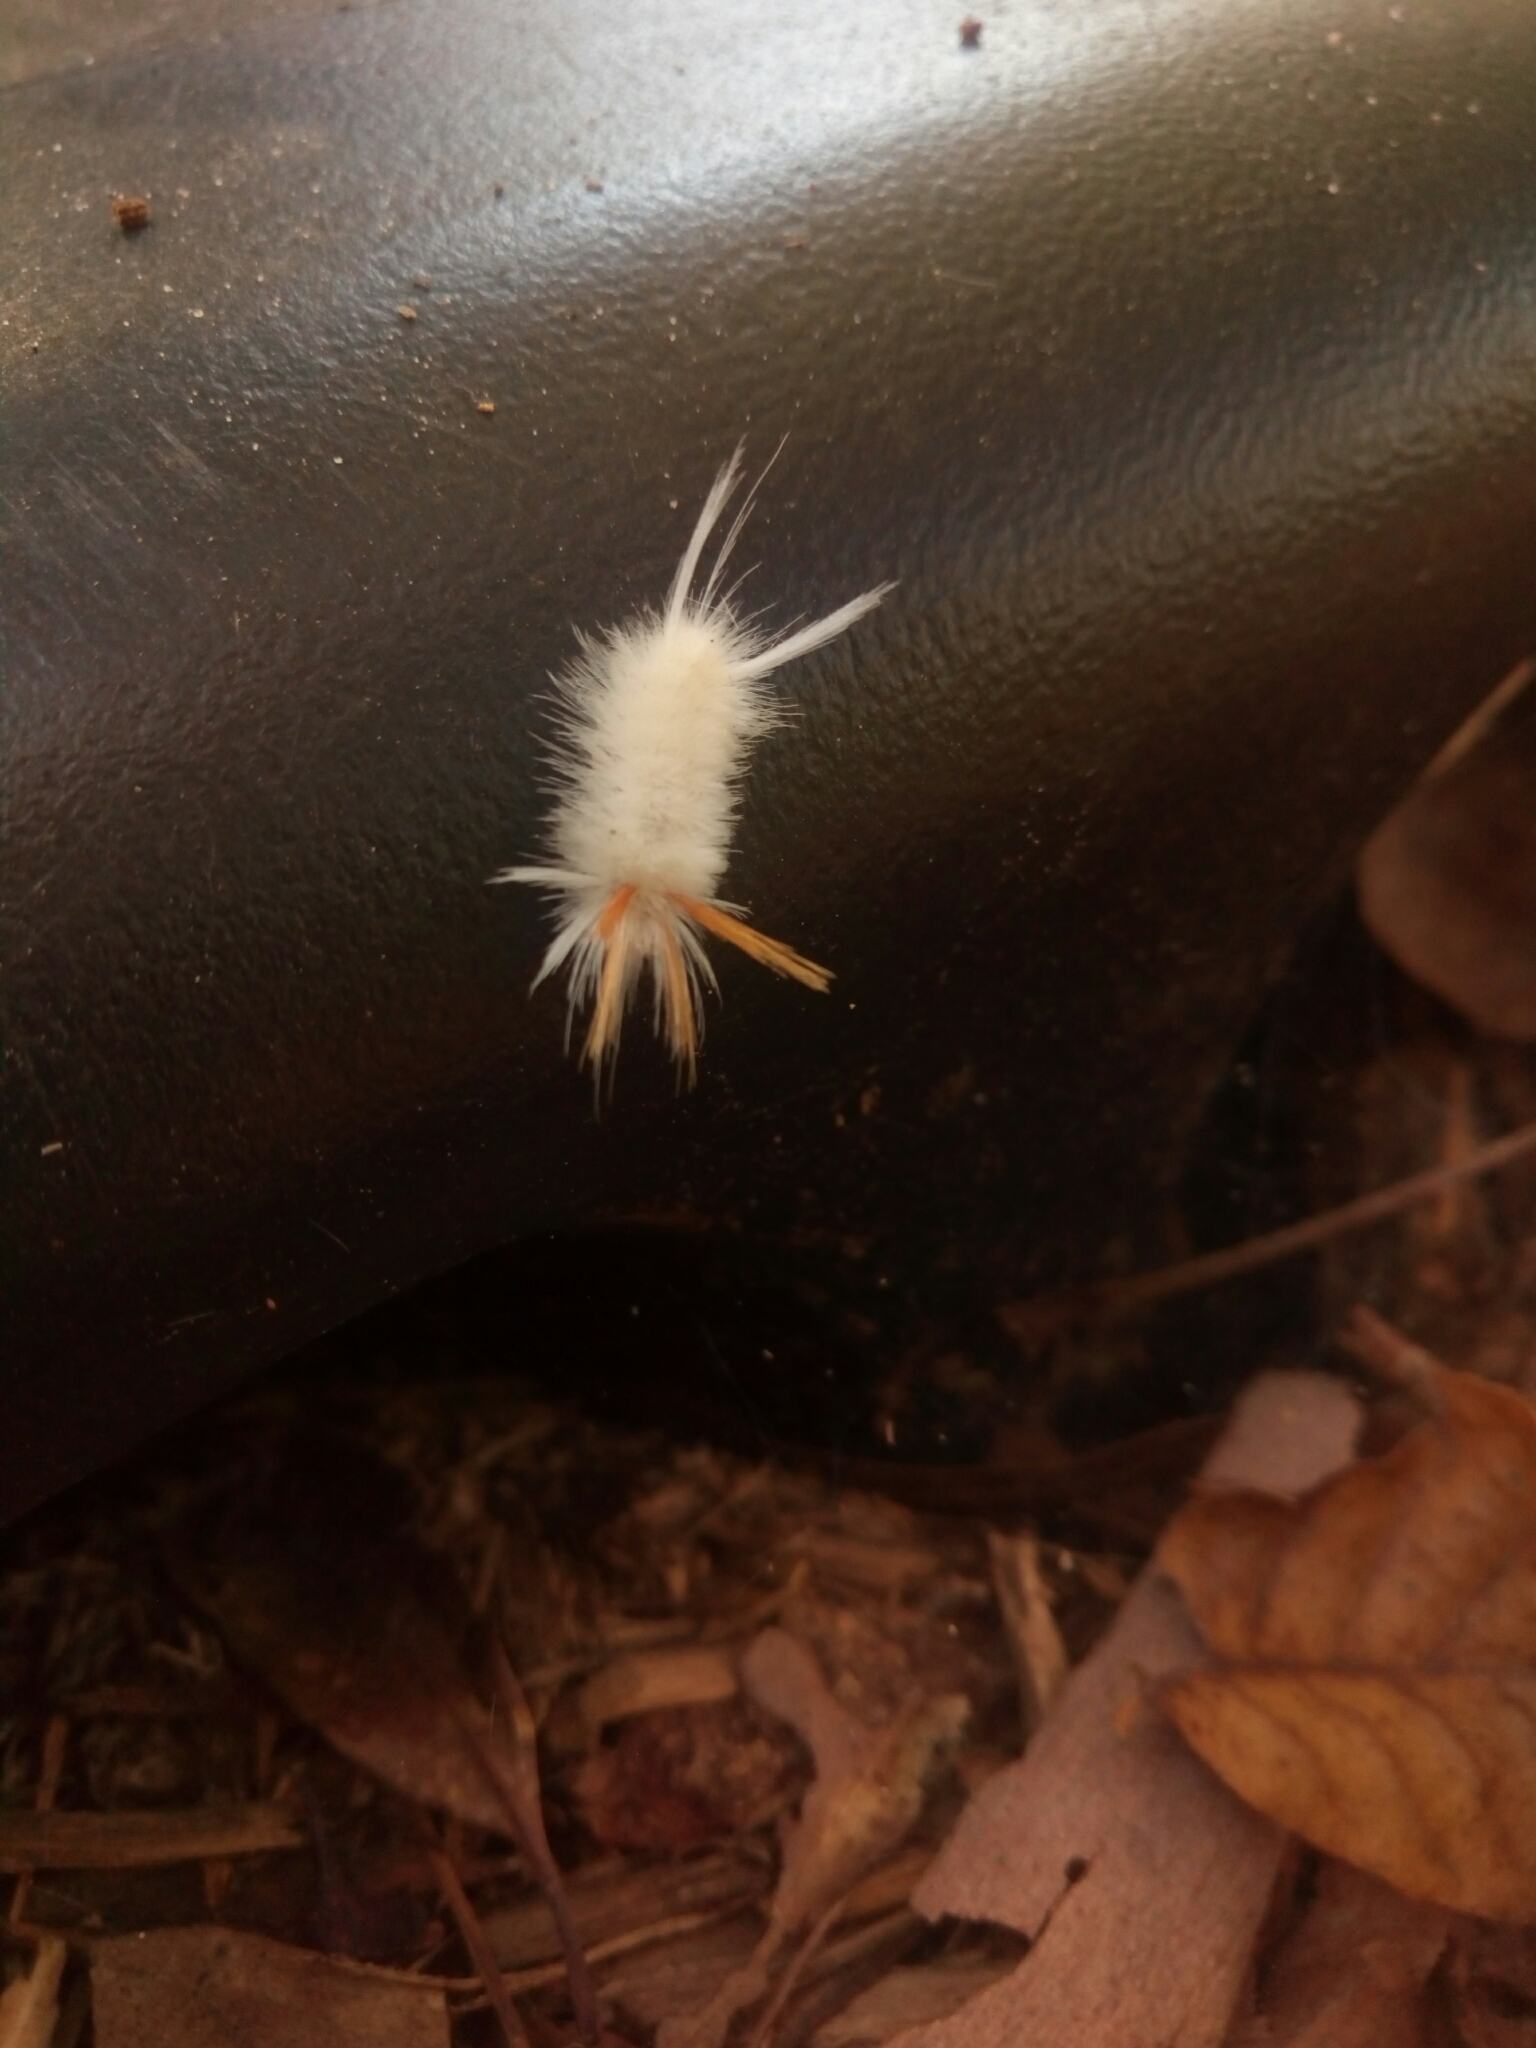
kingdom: Animalia
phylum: Arthropoda
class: Insecta
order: Lepidoptera
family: Erebidae
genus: Halysidota
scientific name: Halysidota harrisii
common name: Sycamore tussock moth
